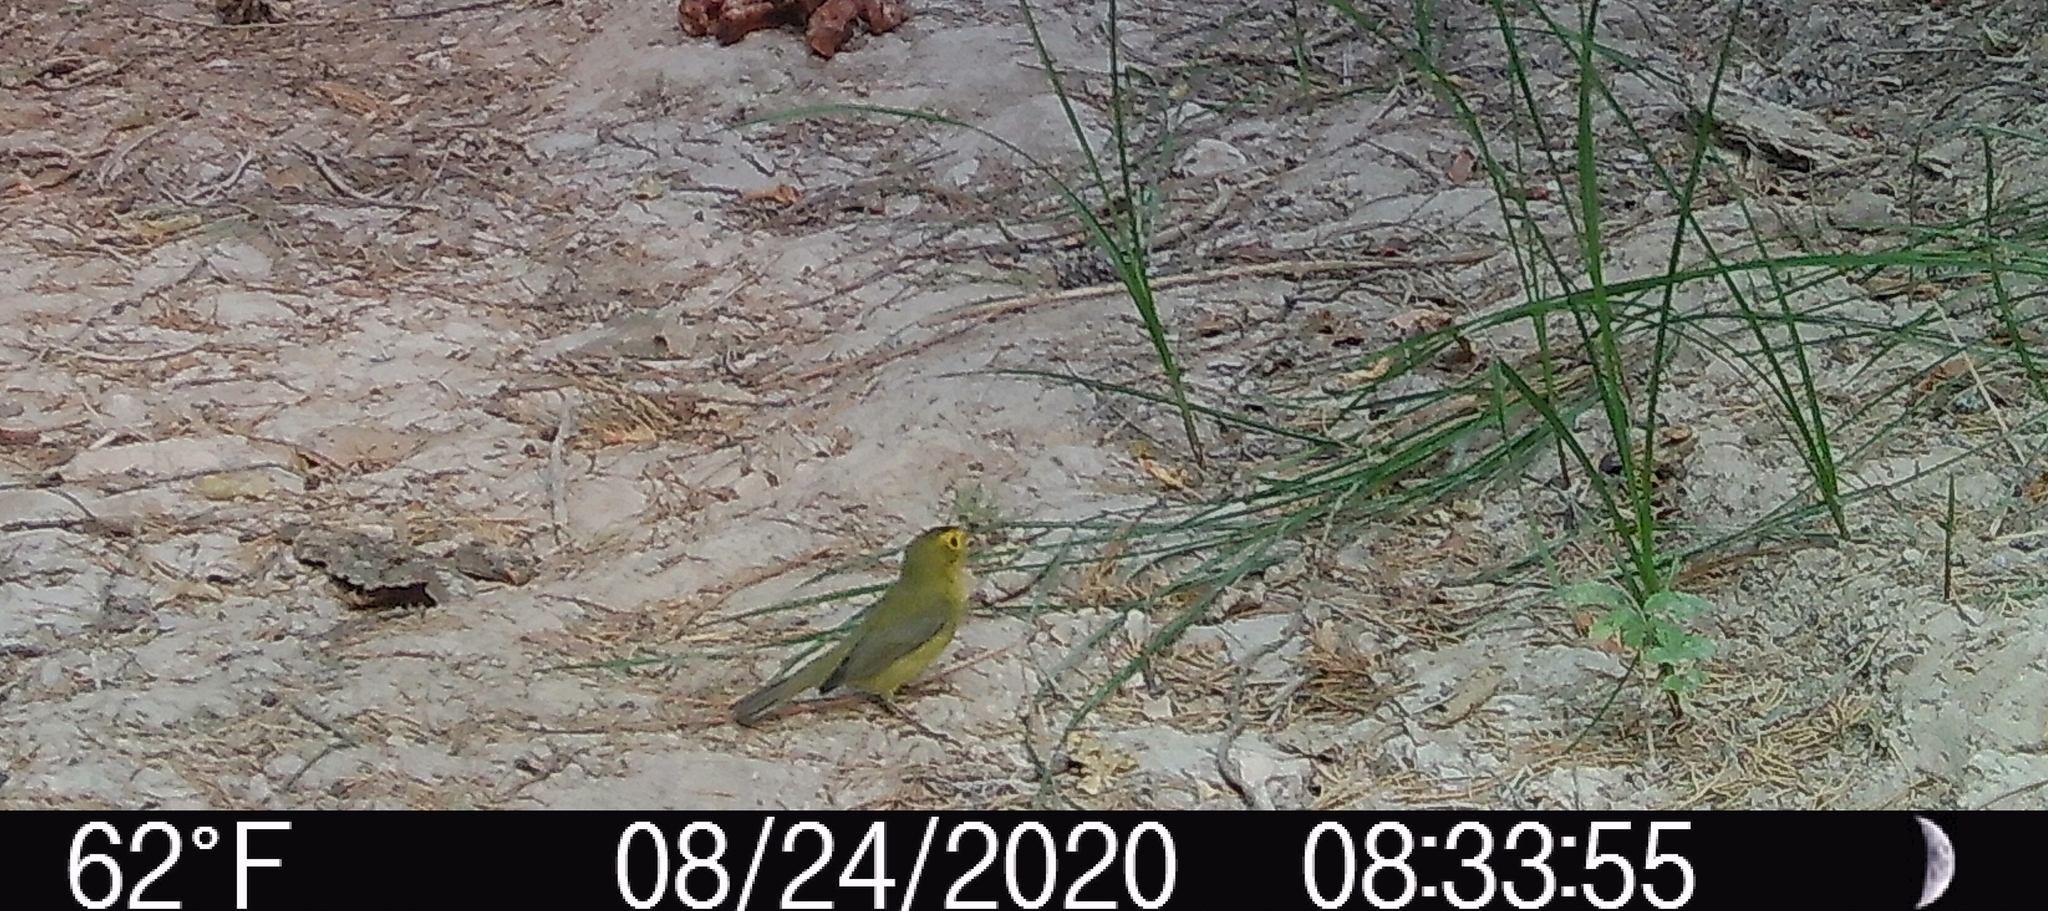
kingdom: Animalia
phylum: Chordata
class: Aves
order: Passeriformes
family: Parulidae
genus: Cardellina
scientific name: Cardellina pusilla
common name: Wilson's warbler
